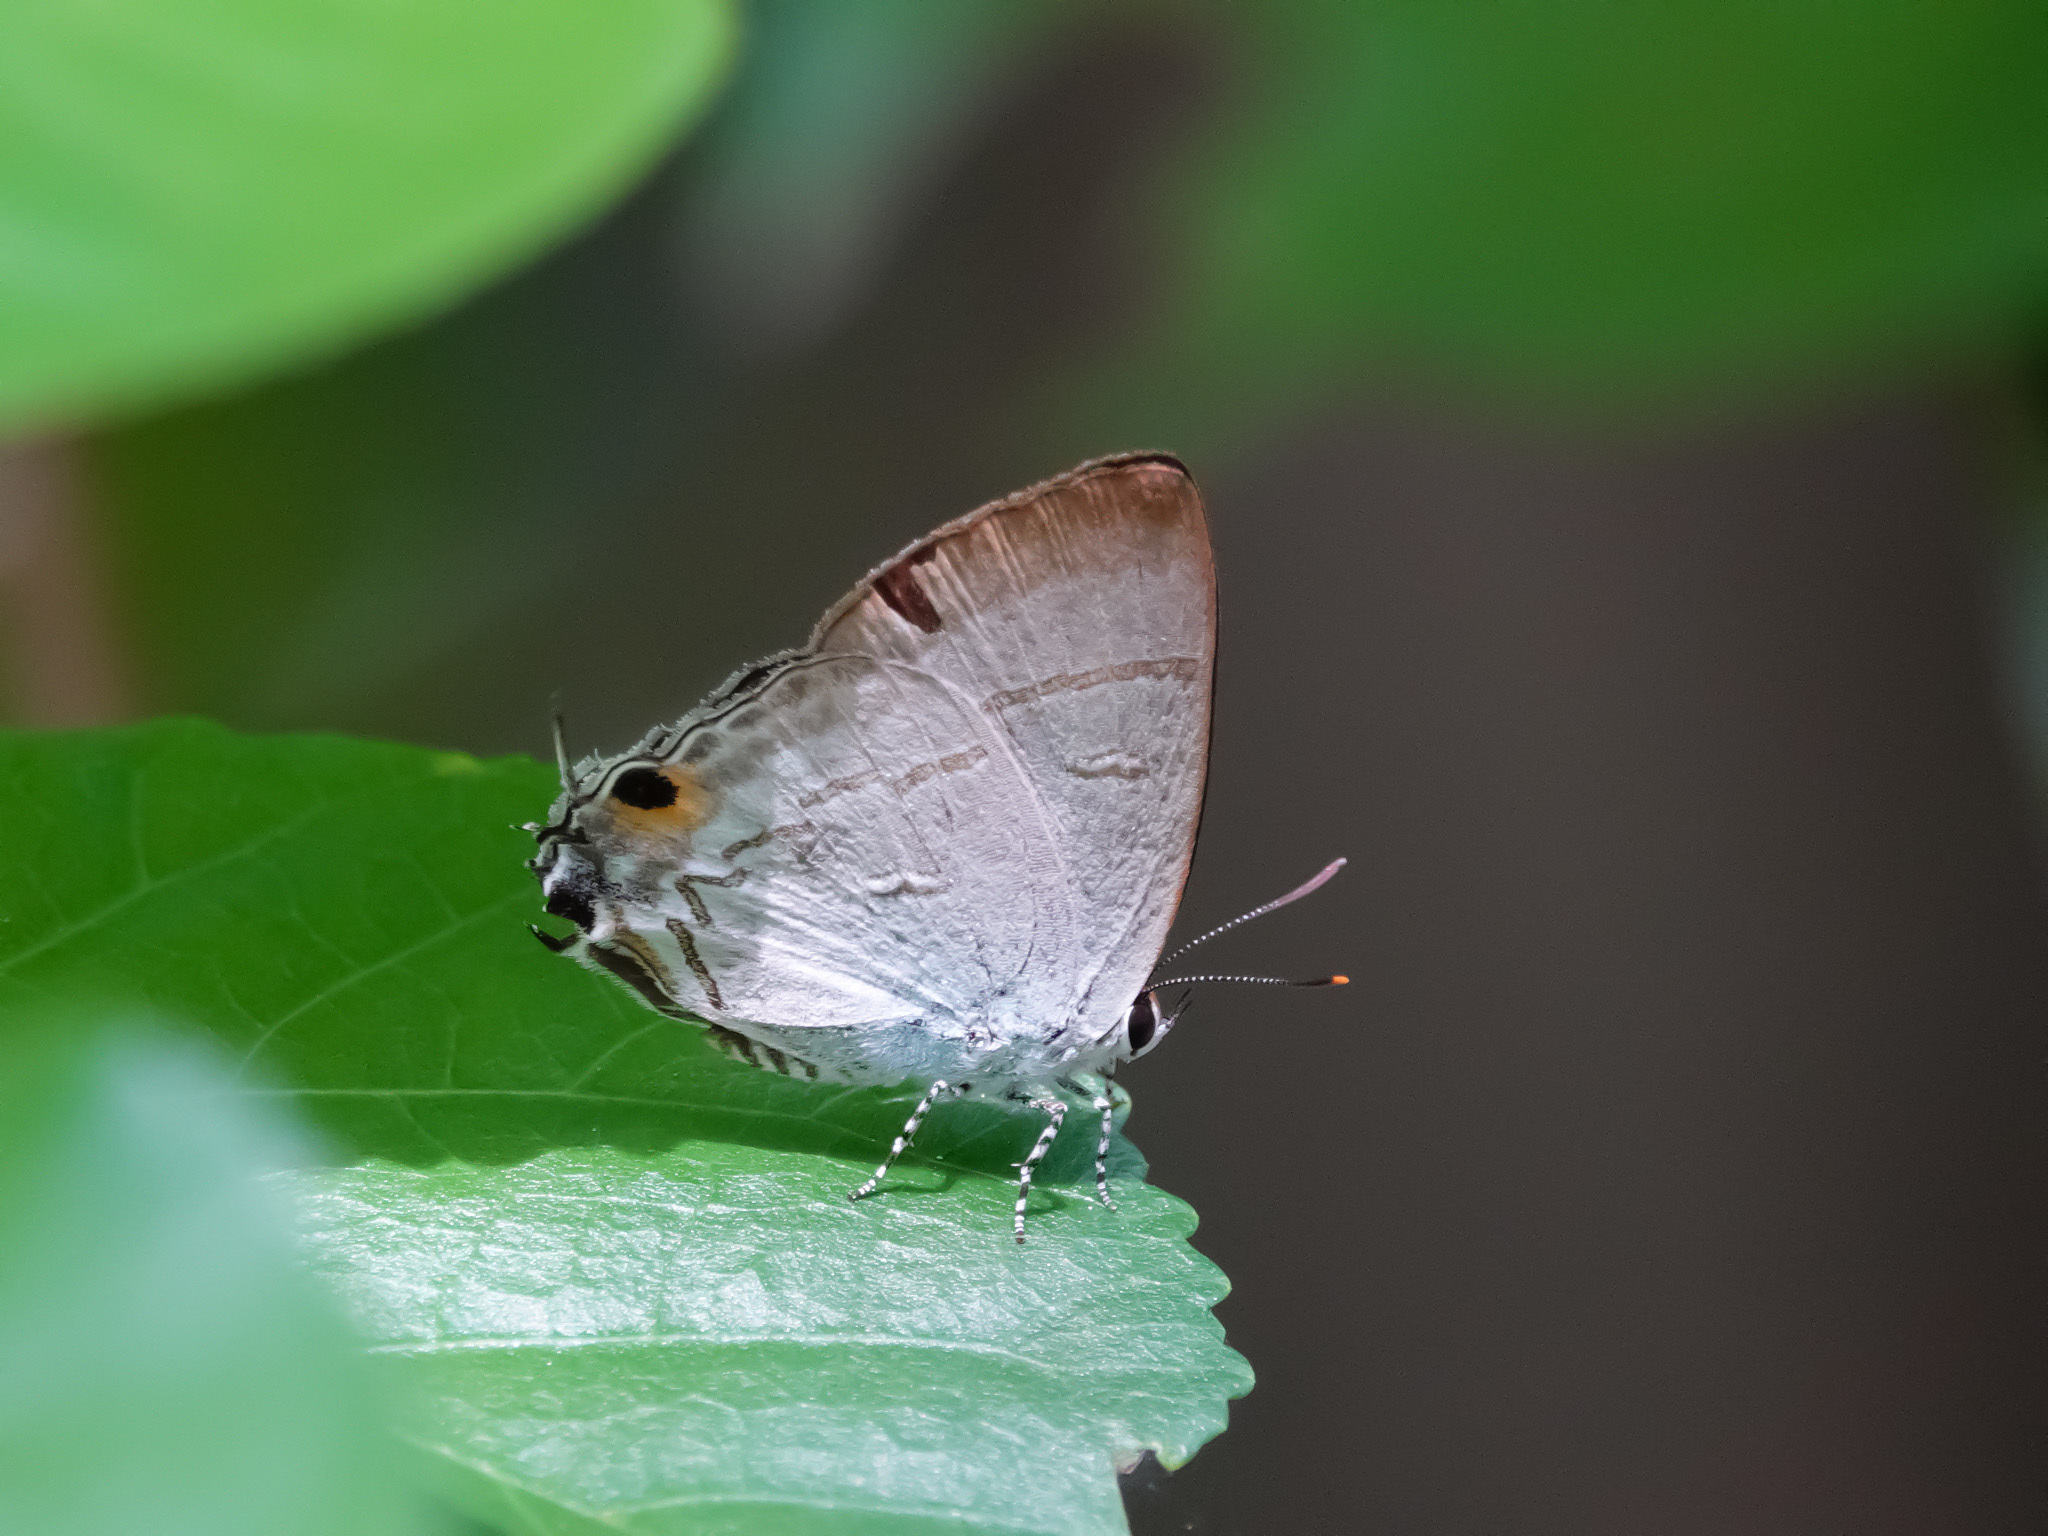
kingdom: Animalia
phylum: Arthropoda
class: Insecta
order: Lepidoptera
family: Lycaenidae
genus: Hypolycaena
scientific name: Hypolycaena erylus
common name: Common tit
